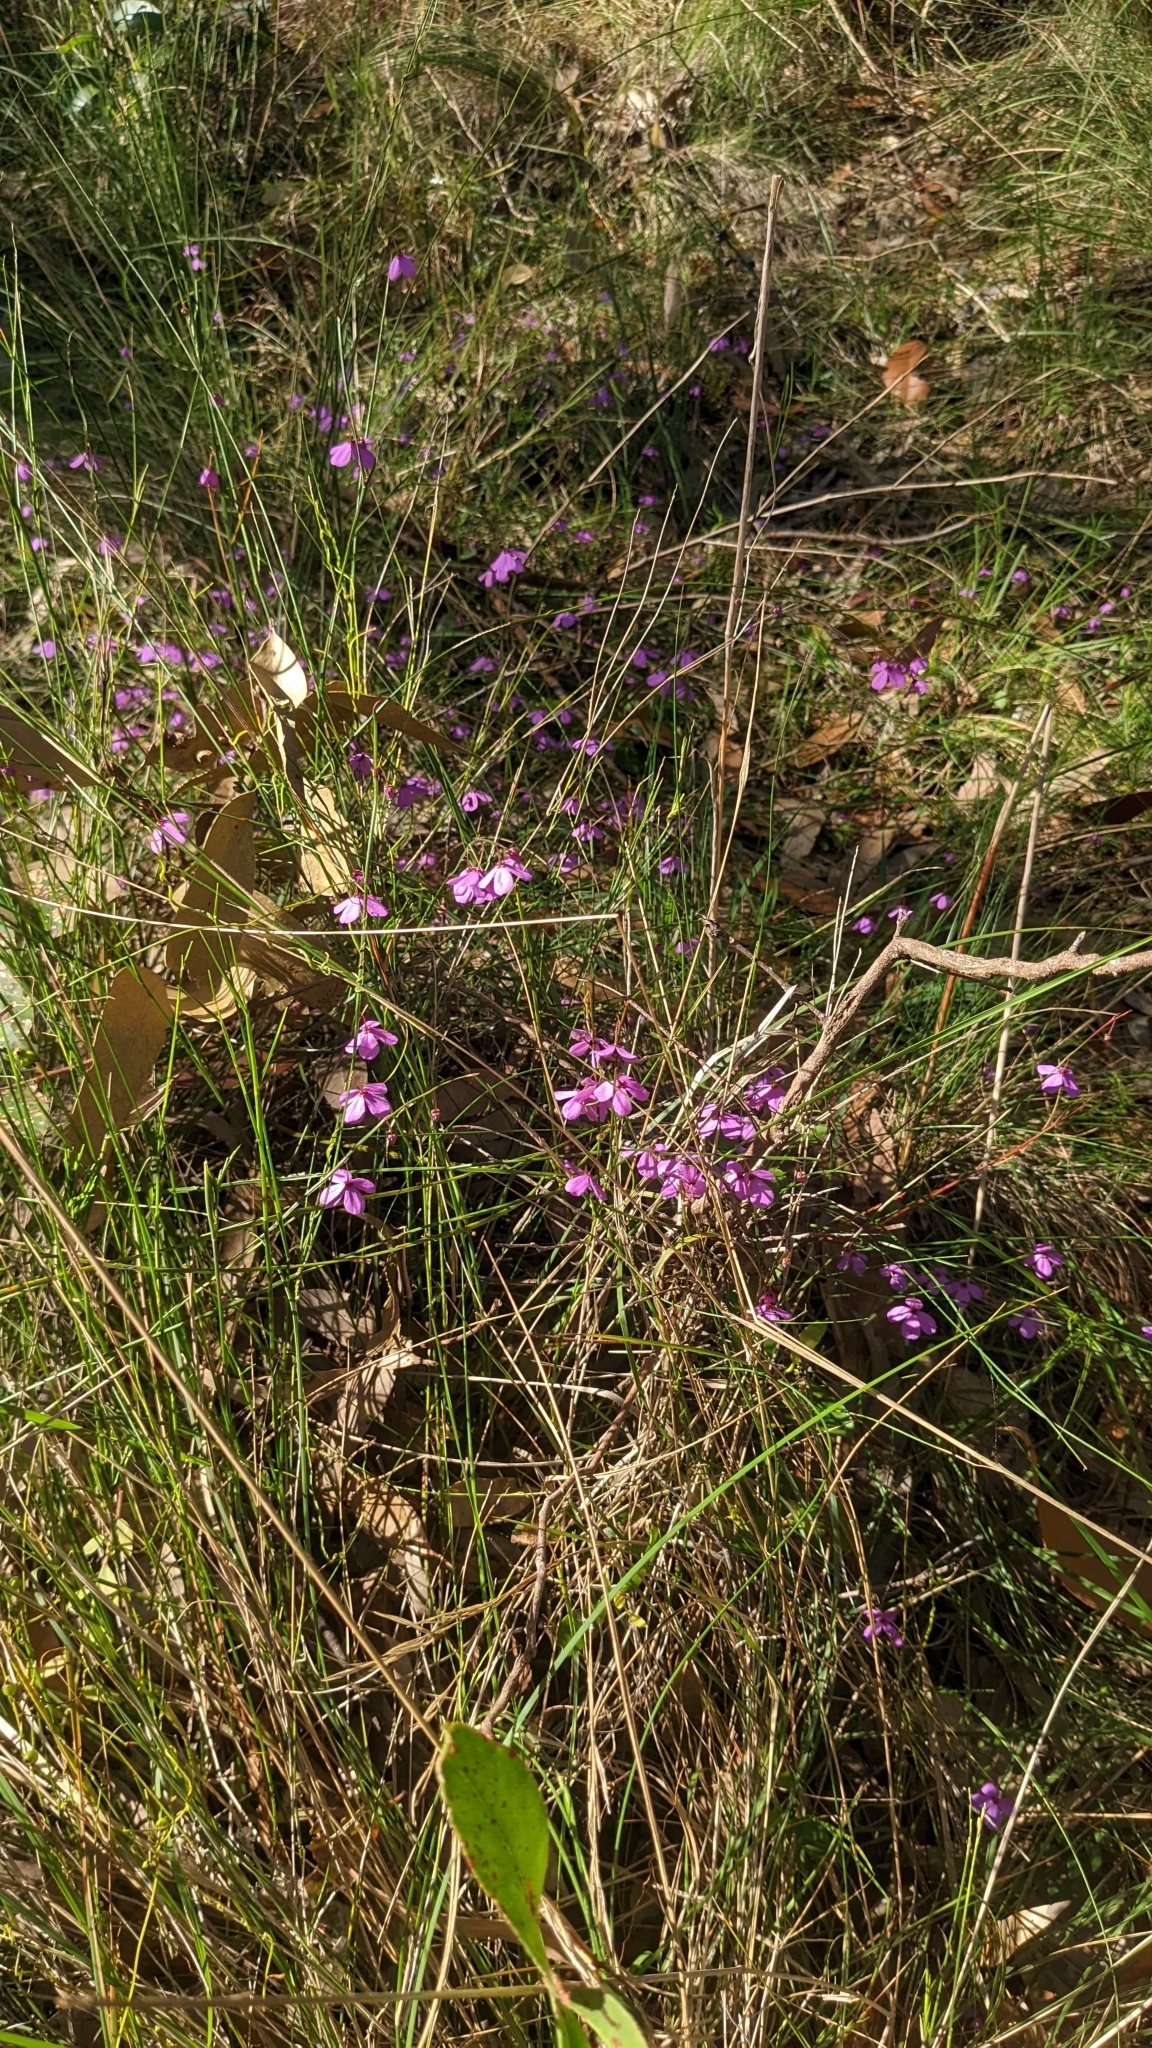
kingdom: Plantae
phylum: Tracheophyta
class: Magnoliopsida
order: Oxalidales
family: Elaeocarpaceae
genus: Tetratheca
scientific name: Tetratheca juncea
